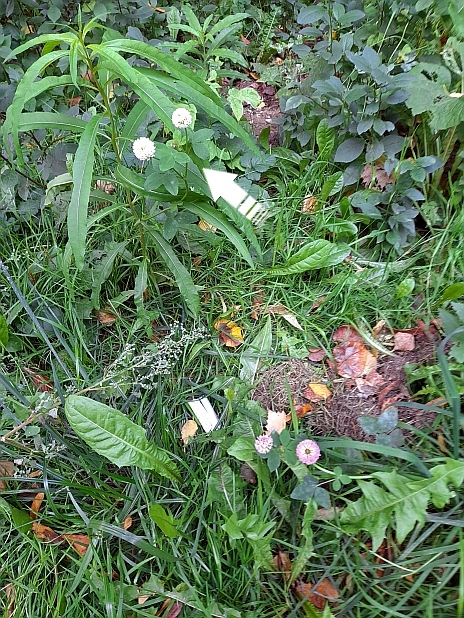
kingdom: Plantae
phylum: Tracheophyta
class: Magnoliopsida
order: Fabales
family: Fabaceae
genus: Trifolium
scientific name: Trifolium hybridum
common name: Alsike clover
